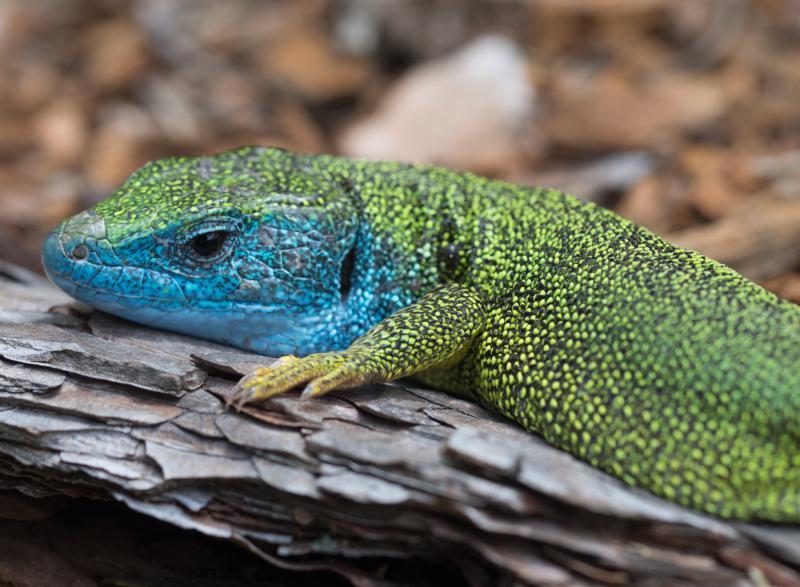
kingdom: Animalia
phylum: Chordata
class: Squamata
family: Lacertidae
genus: Lacerta
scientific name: Lacerta viridis
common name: European green lizard
